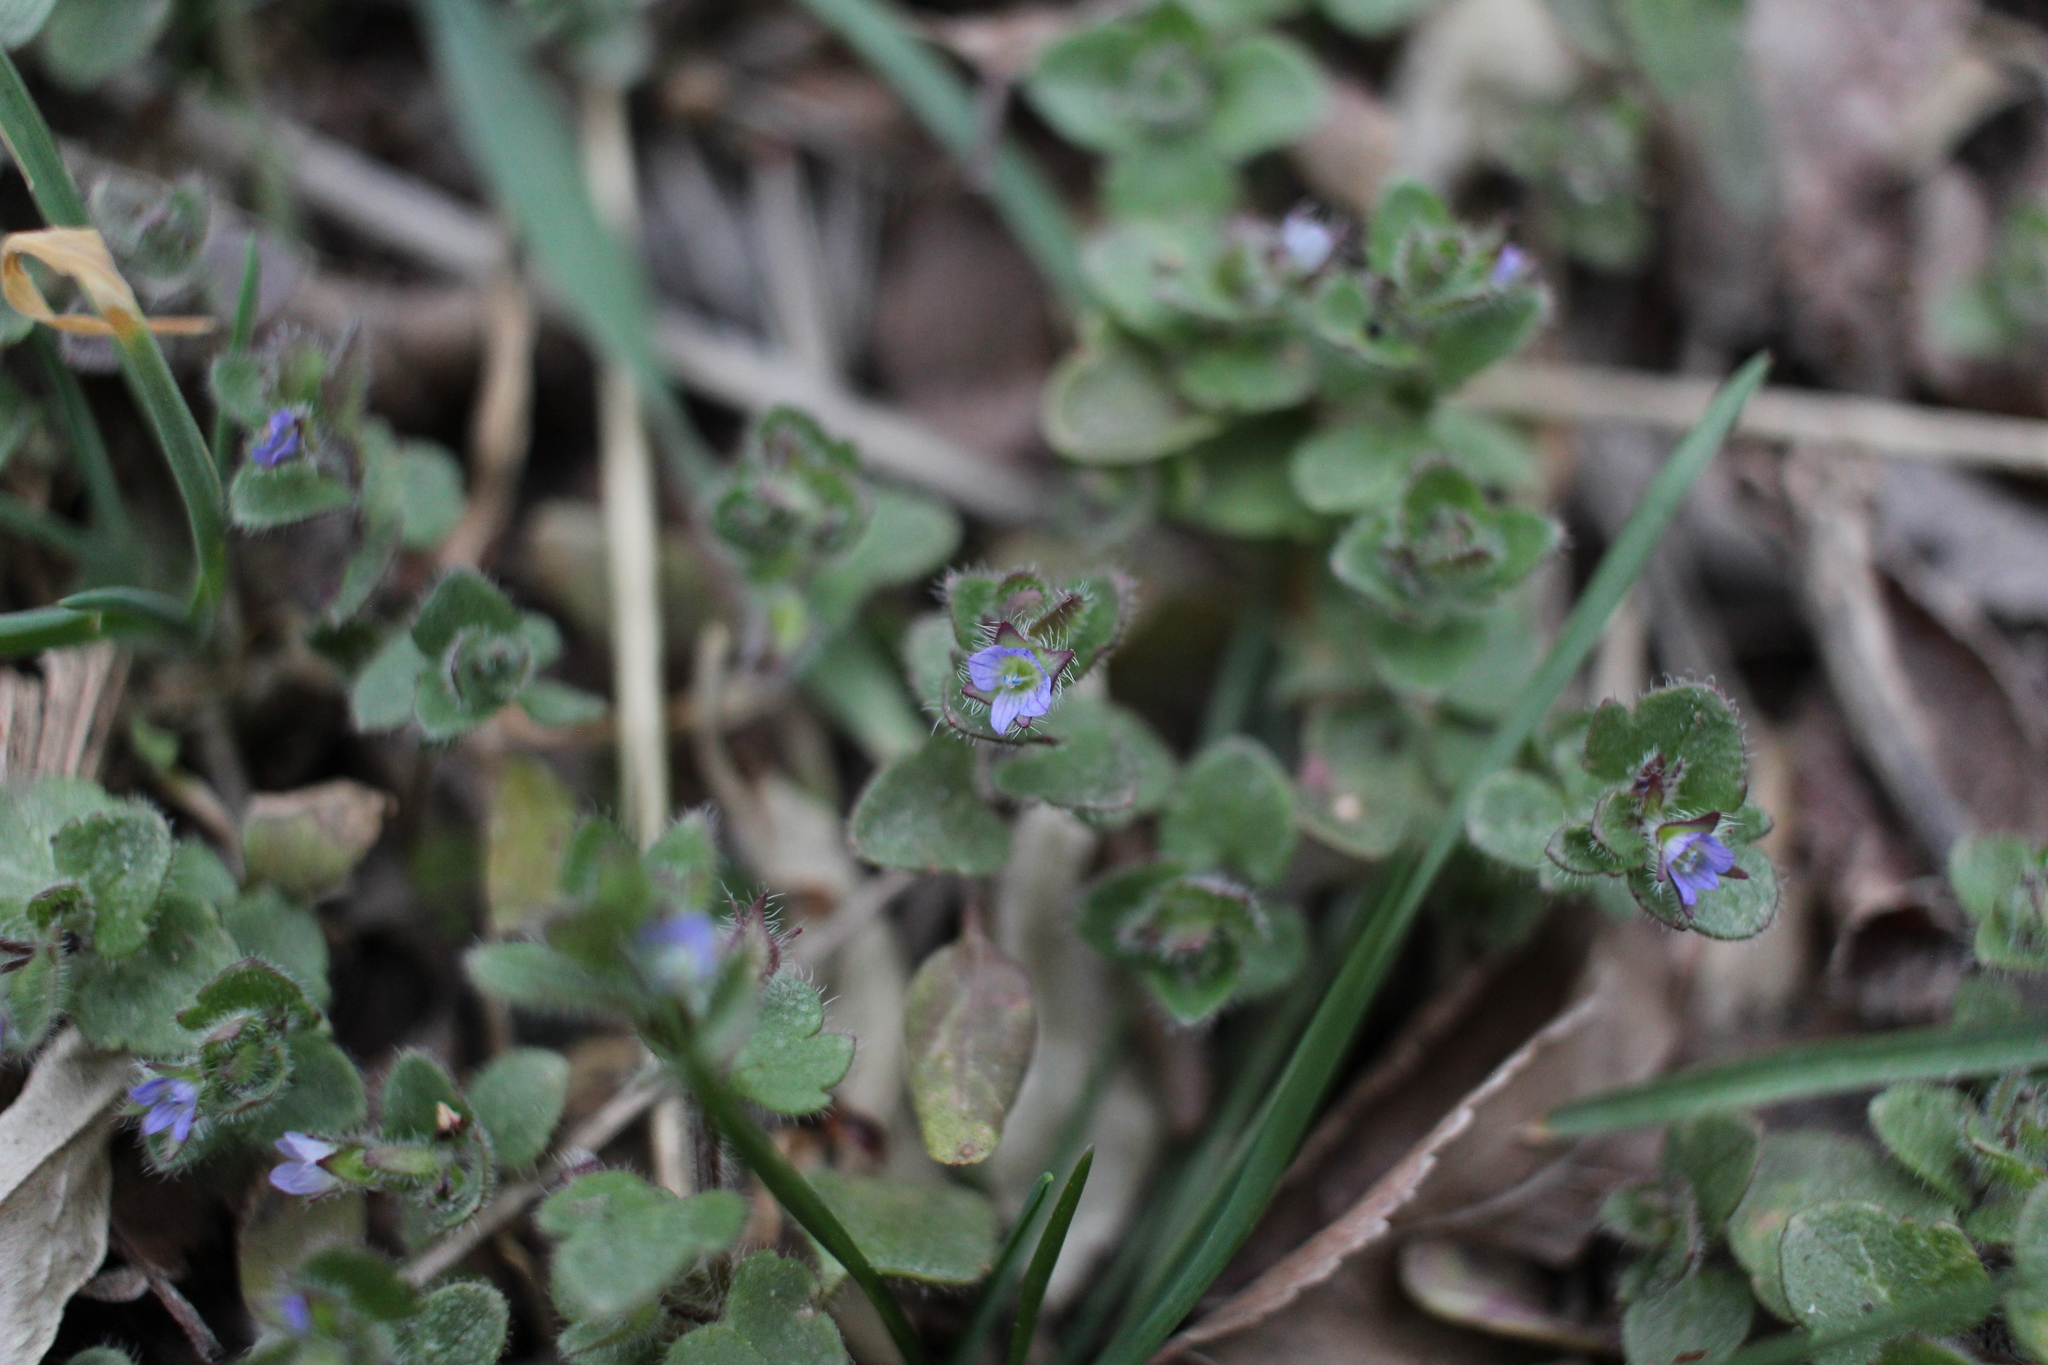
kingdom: Plantae
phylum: Tracheophyta
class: Magnoliopsida
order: Lamiales
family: Plantaginaceae
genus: Veronica
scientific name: Veronica hederifolia
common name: Ivy-leaved speedwell
